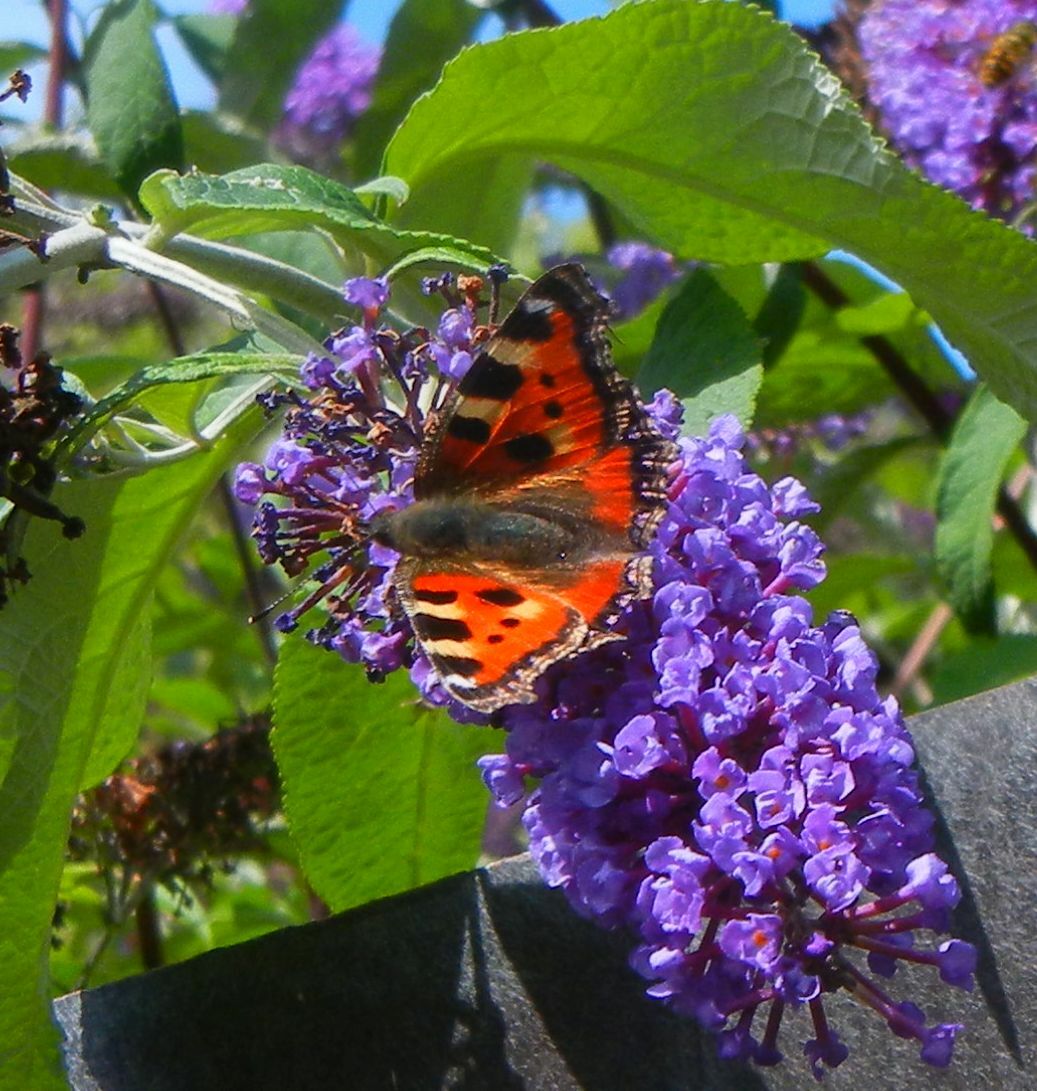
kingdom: Animalia
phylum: Arthropoda
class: Insecta
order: Lepidoptera
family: Nymphalidae
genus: Aglais
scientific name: Aglais urticae
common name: Small tortoiseshell
